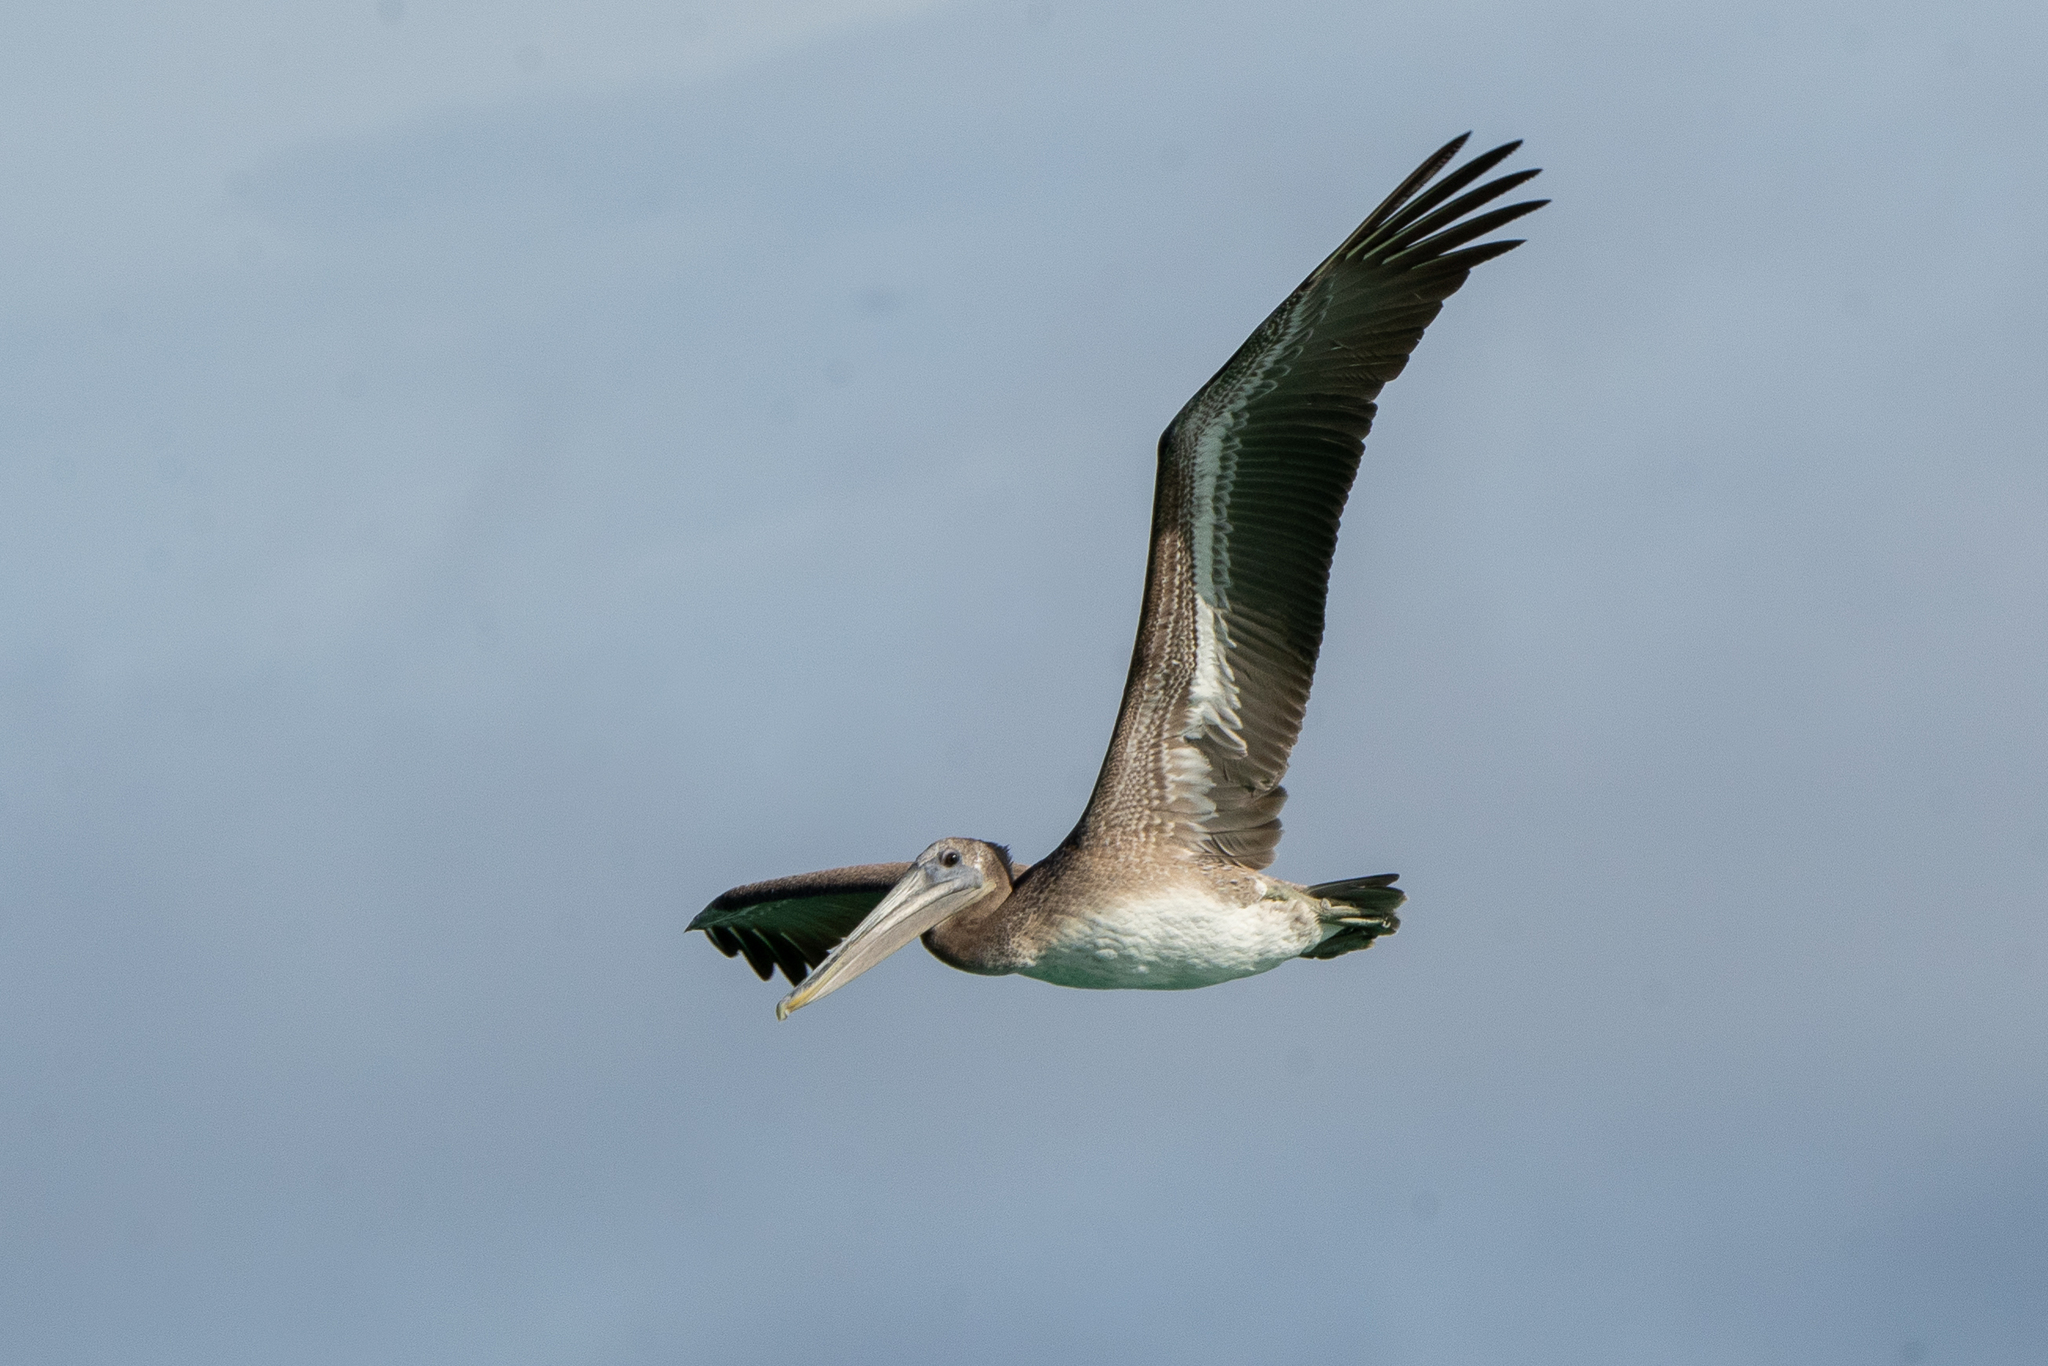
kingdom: Animalia
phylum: Chordata
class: Aves
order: Pelecaniformes
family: Pelecanidae
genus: Pelecanus
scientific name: Pelecanus occidentalis
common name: Brown pelican
